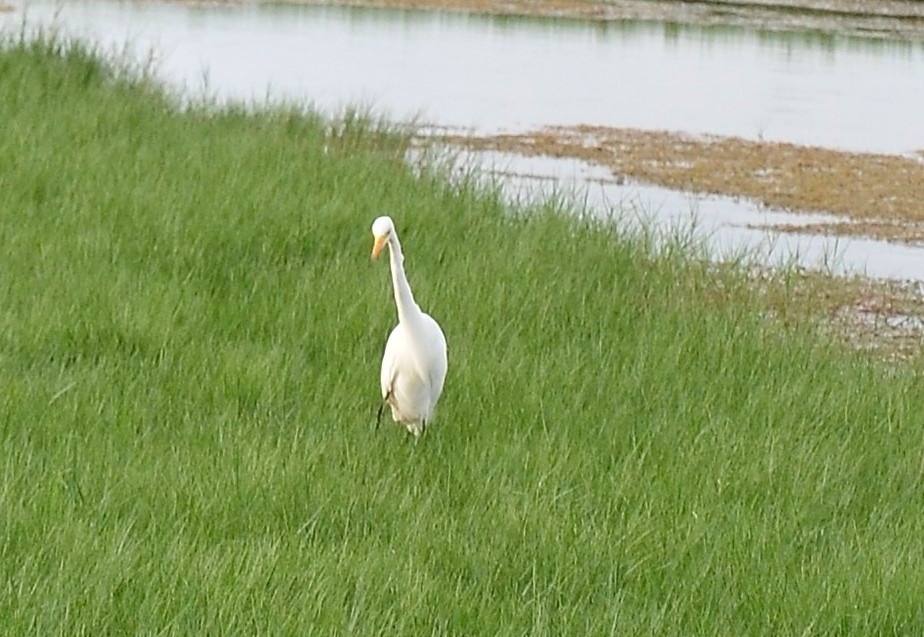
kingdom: Animalia
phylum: Chordata
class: Aves
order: Pelecaniformes
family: Ardeidae
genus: Egretta
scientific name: Egretta intermedia
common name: Intermediate egret
